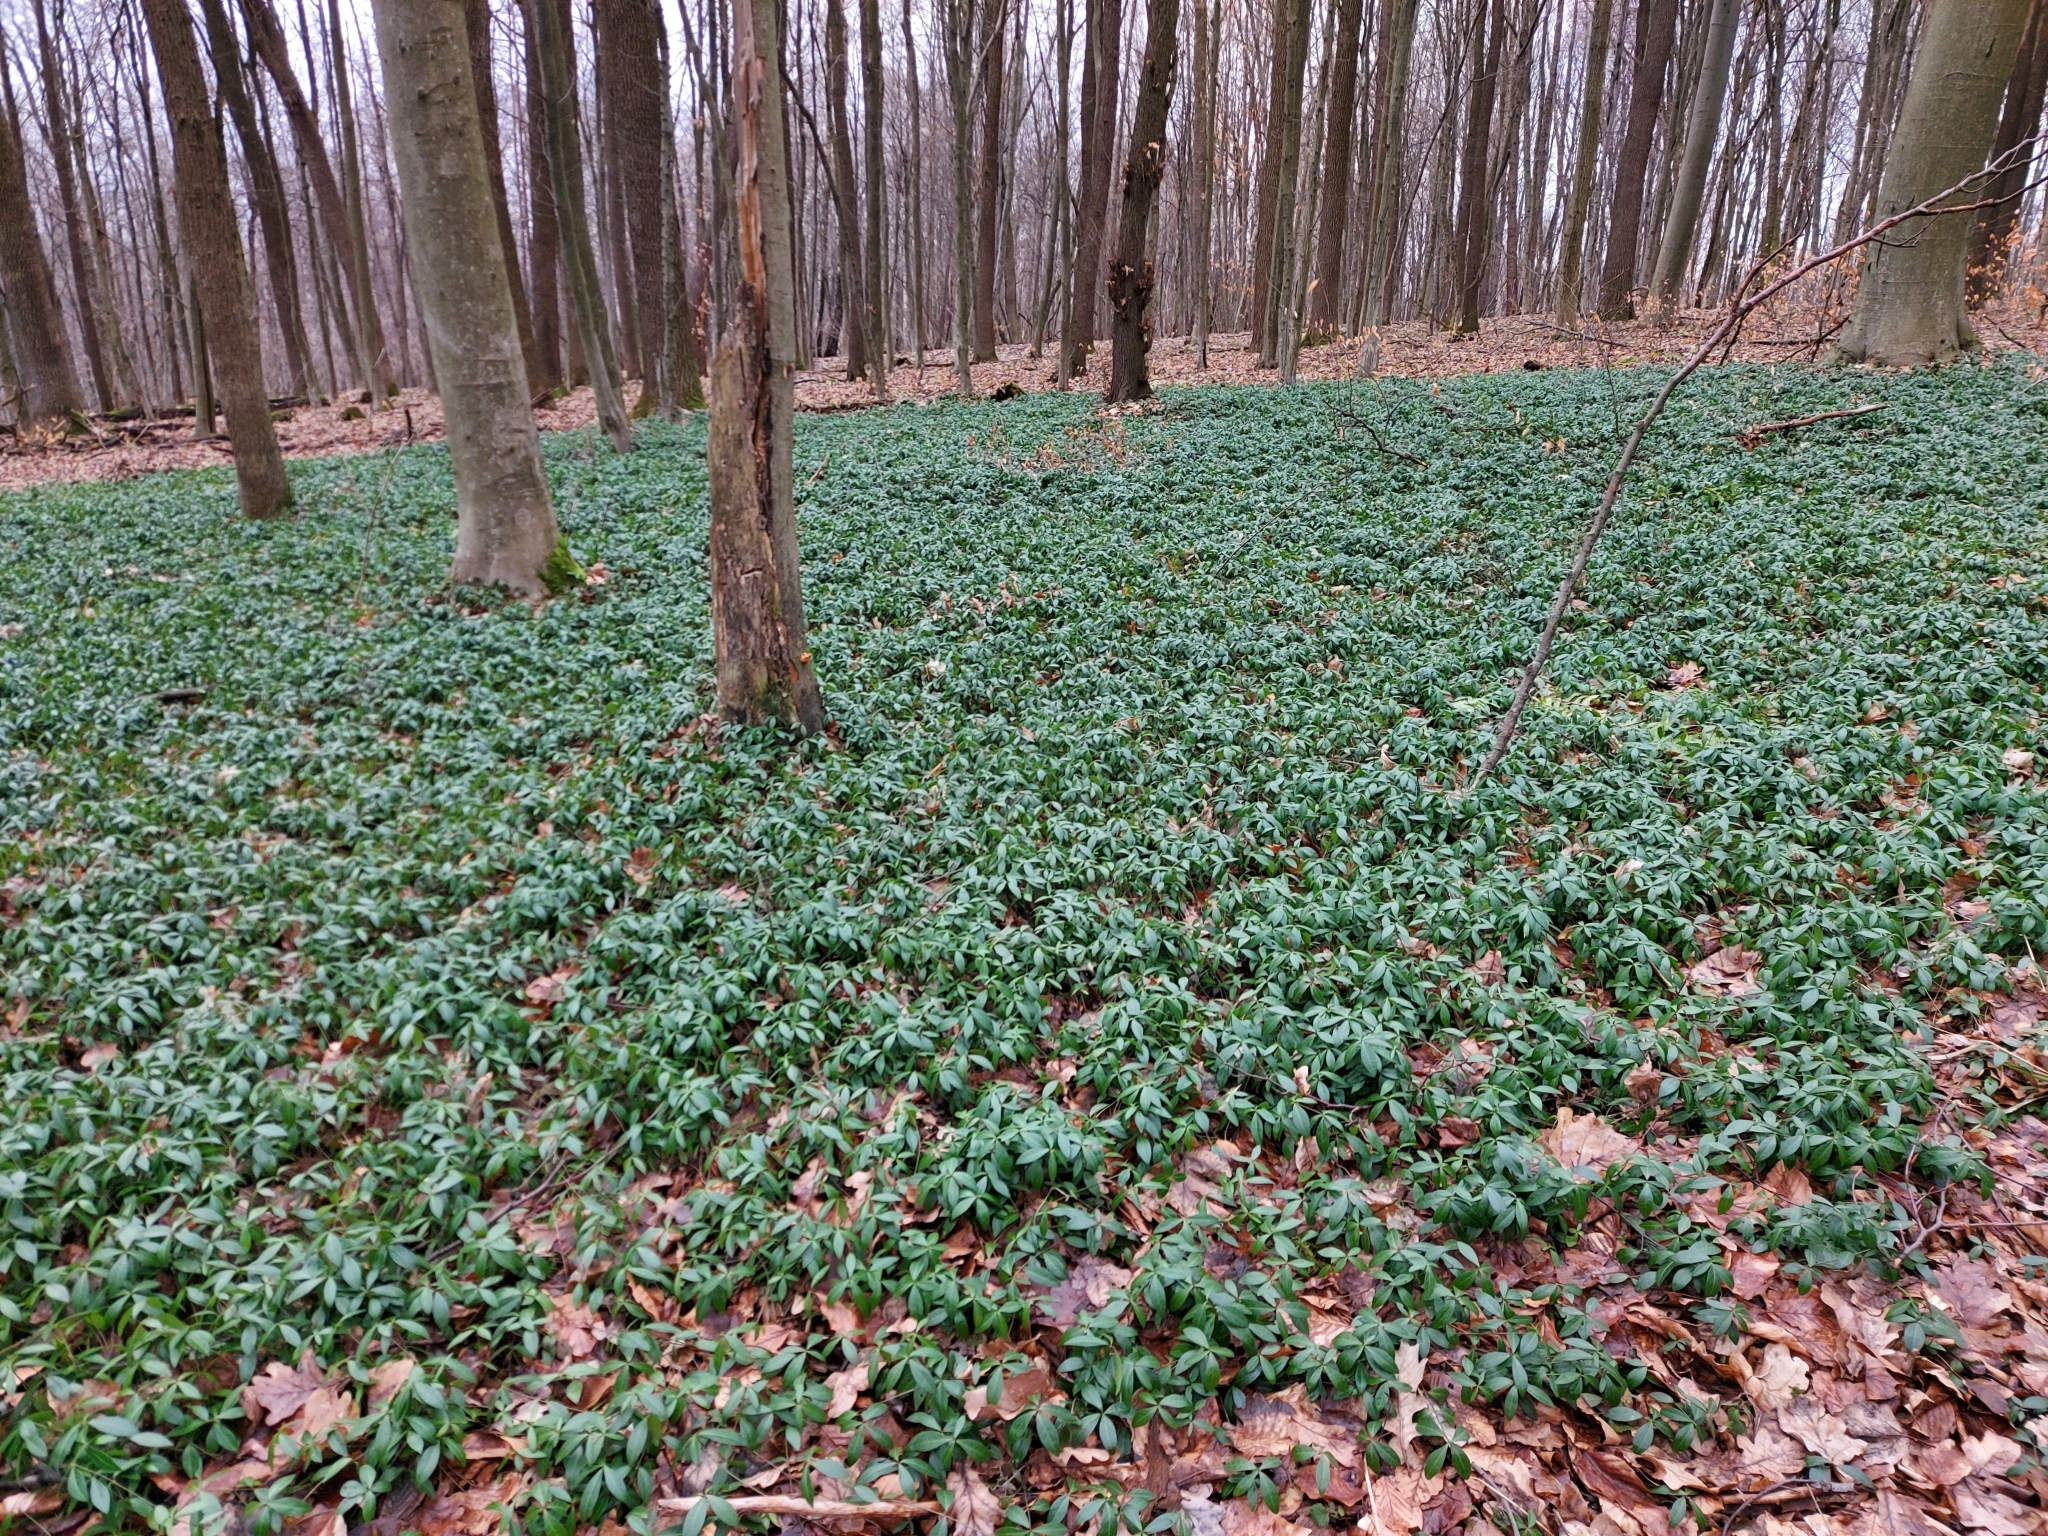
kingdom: Plantae
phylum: Tracheophyta
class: Magnoliopsida
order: Gentianales
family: Apocynaceae
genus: Vinca
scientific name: Vinca minor
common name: Lesser periwinkle
